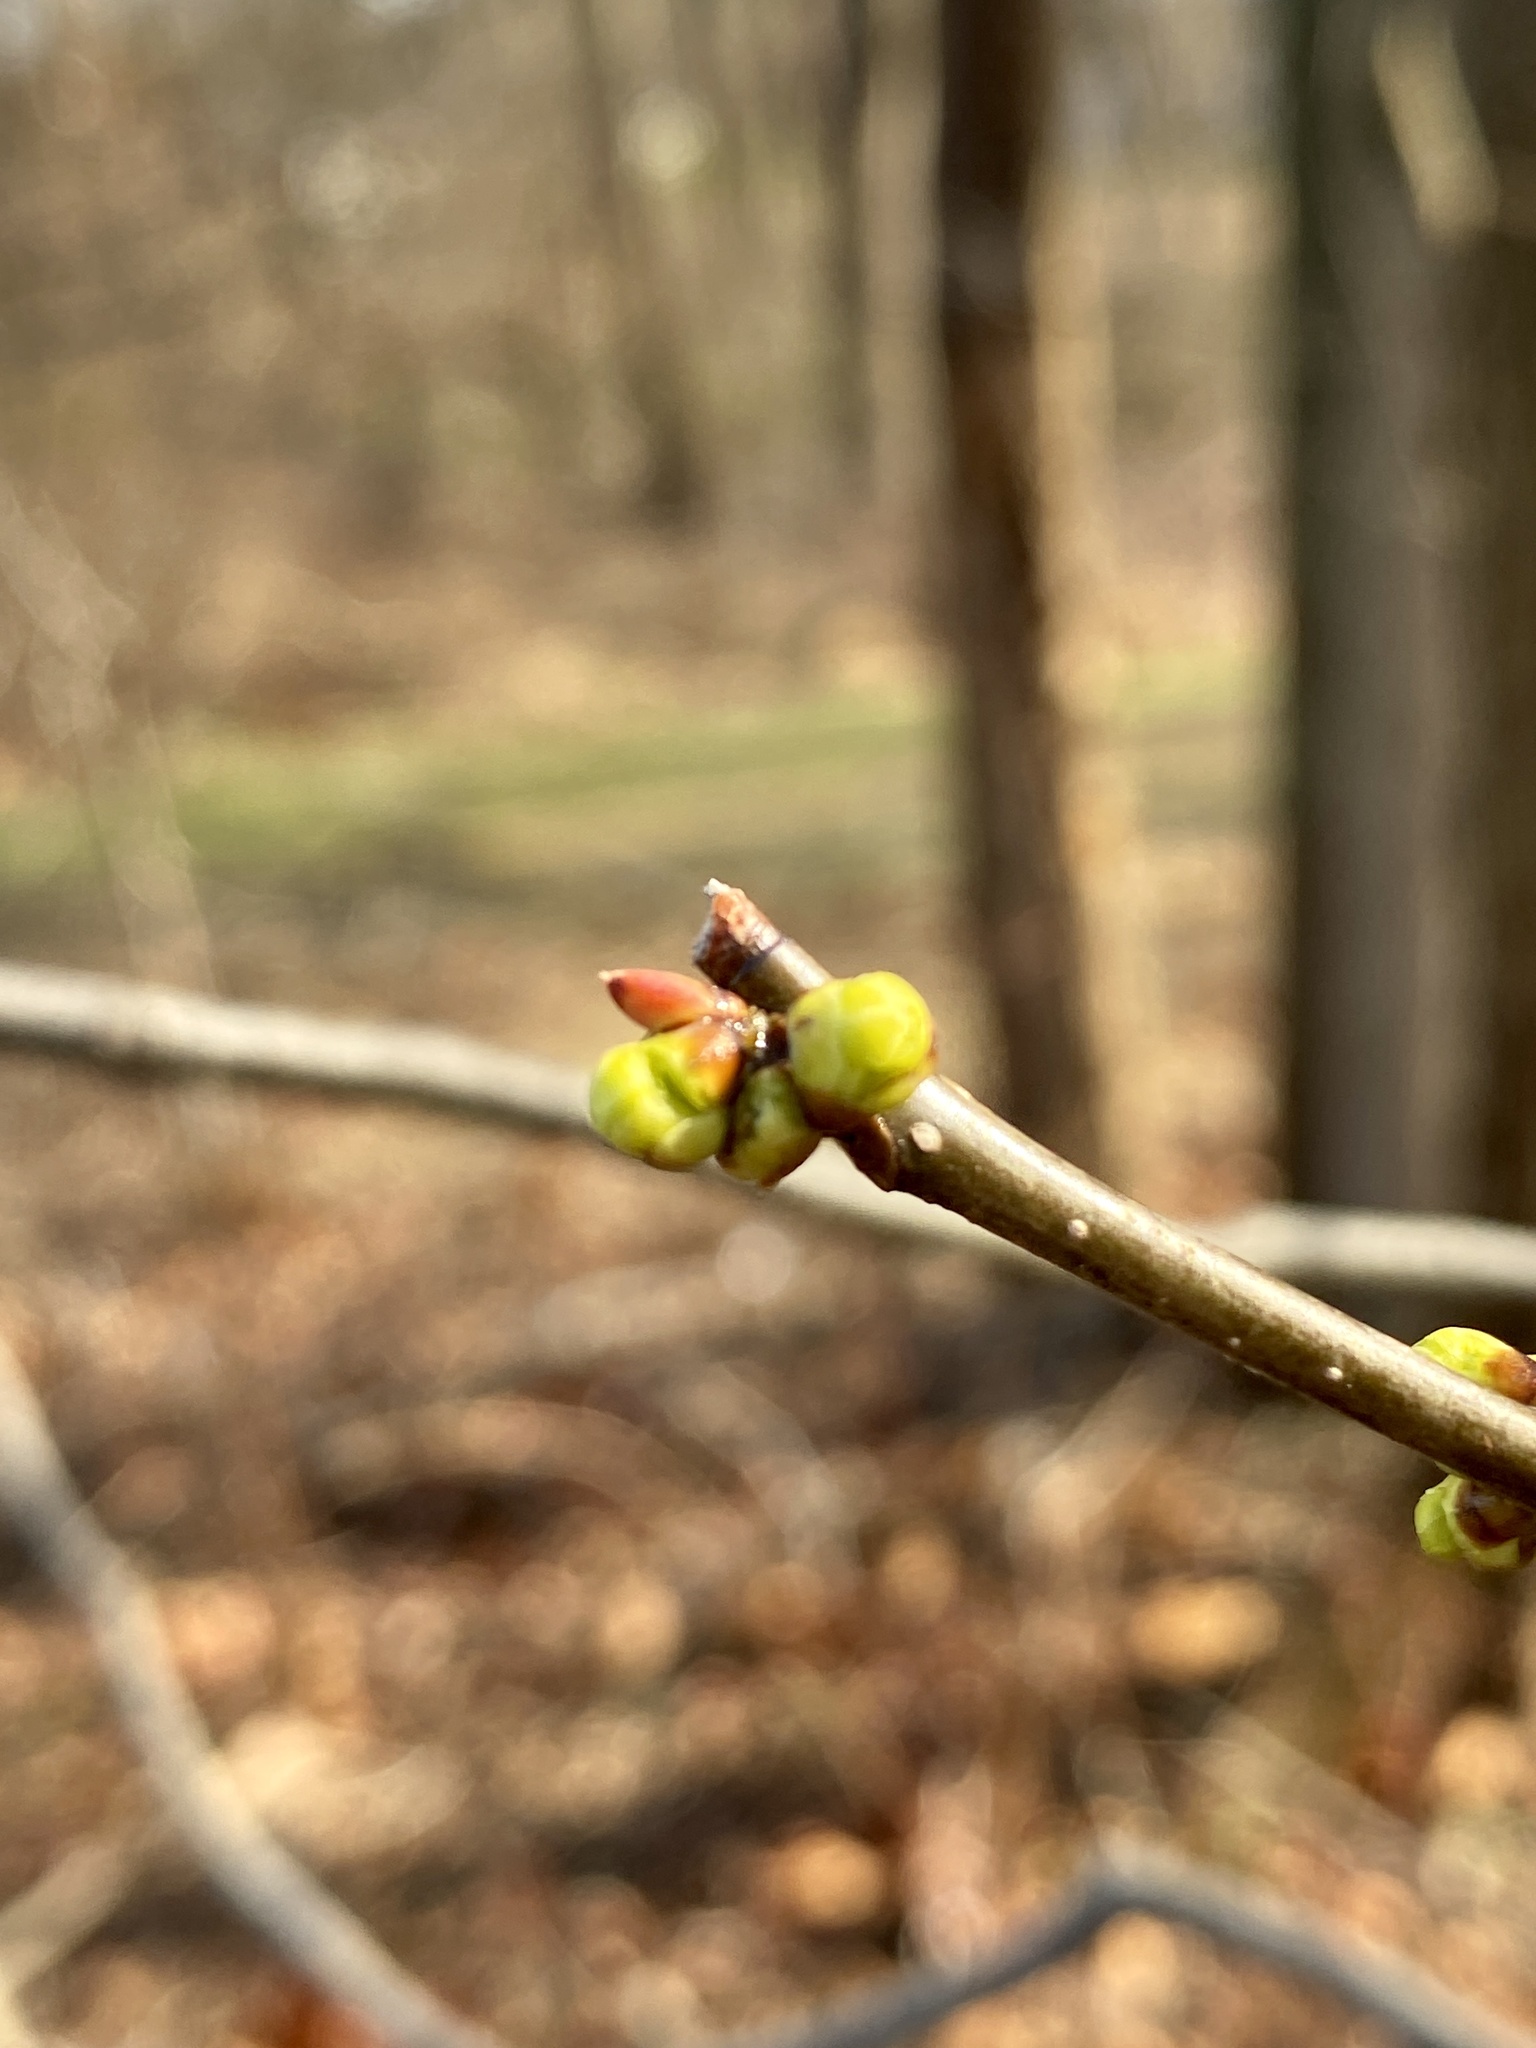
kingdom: Plantae
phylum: Tracheophyta
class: Magnoliopsida
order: Laurales
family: Lauraceae
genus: Lindera
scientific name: Lindera benzoin
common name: Spicebush
